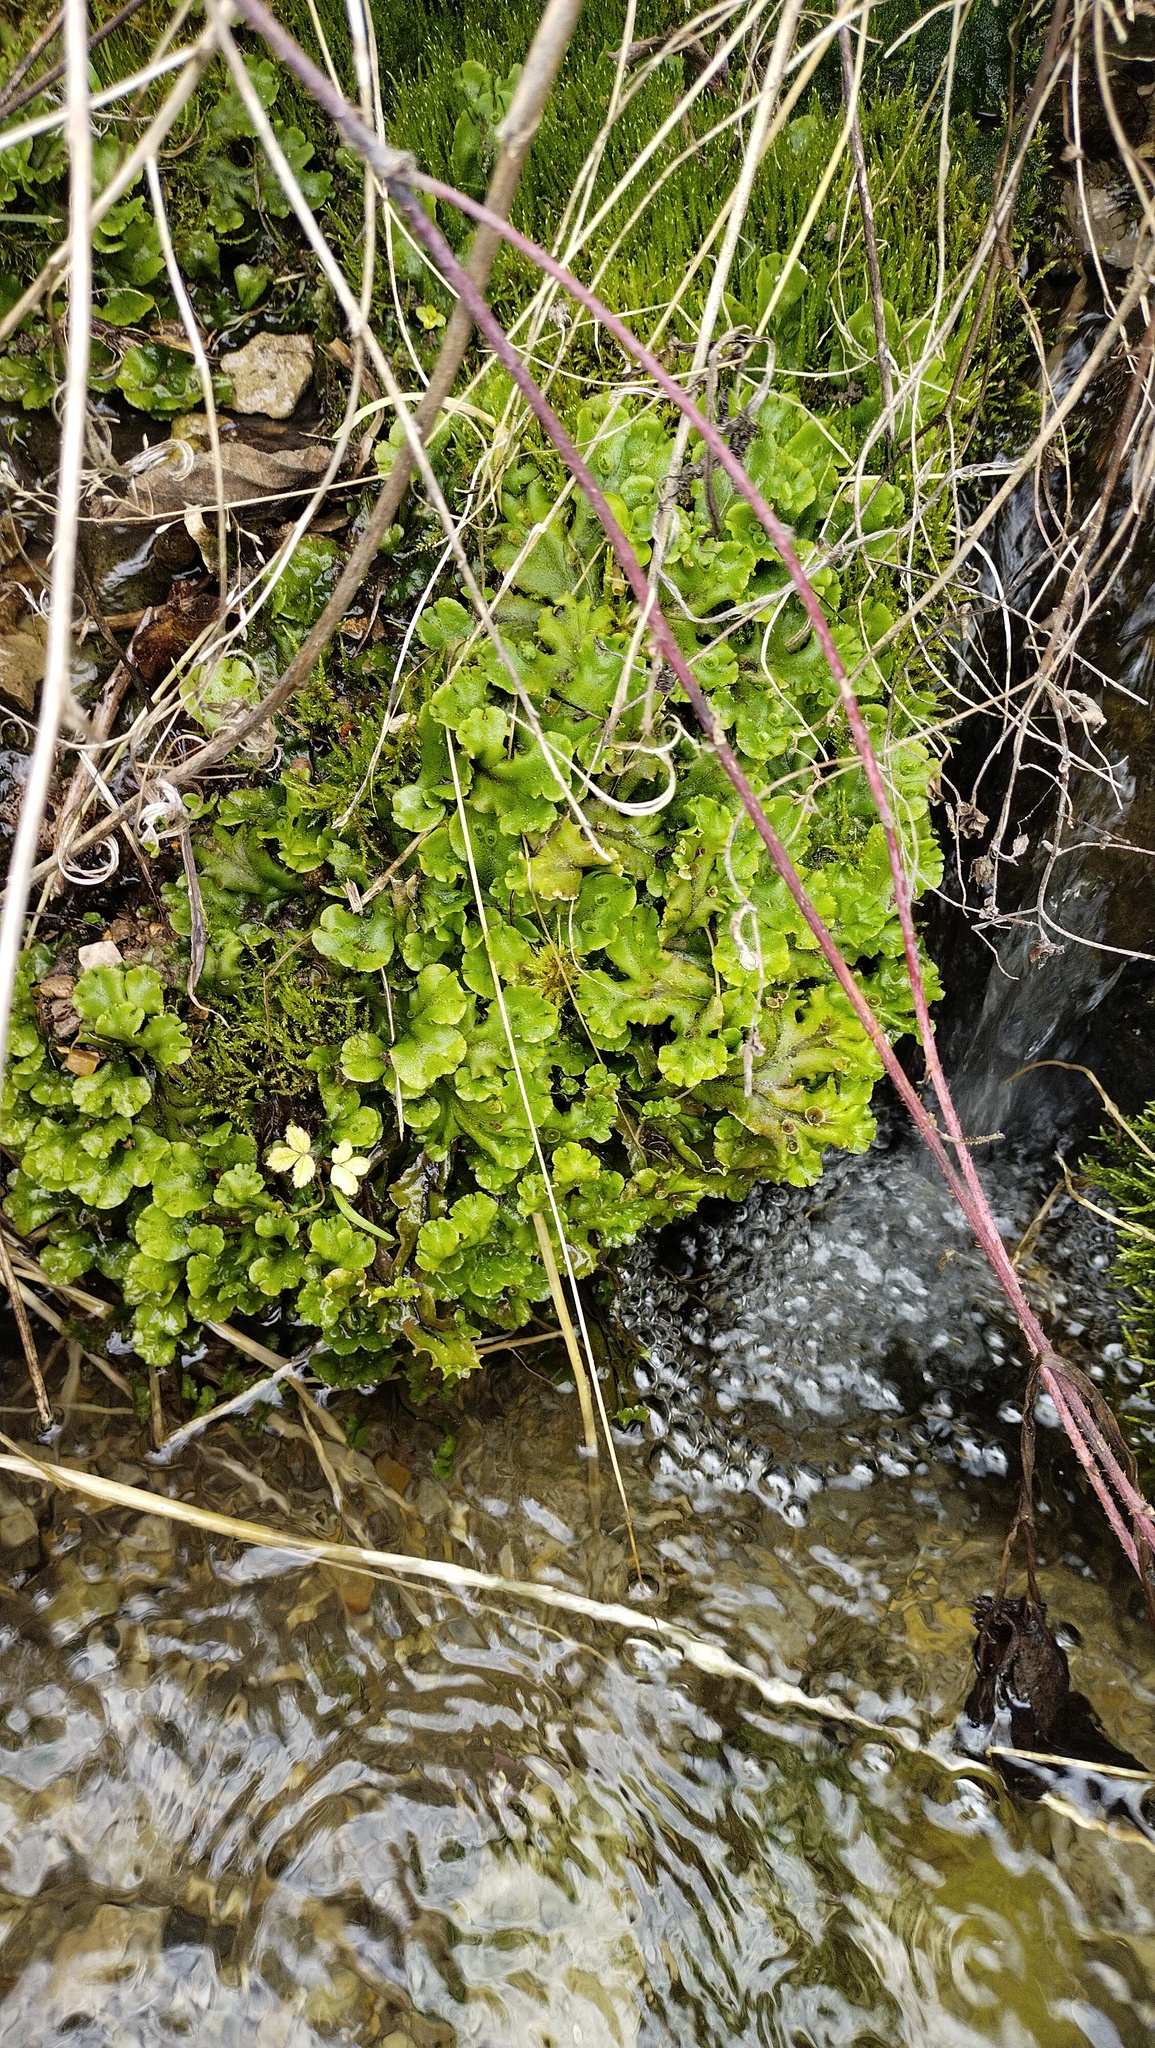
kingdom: Plantae
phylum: Marchantiophyta
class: Marchantiopsida
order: Marchantiales
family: Marchantiaceae
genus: Marchantia
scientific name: Marchantia polymorpha
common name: Common liverwort
